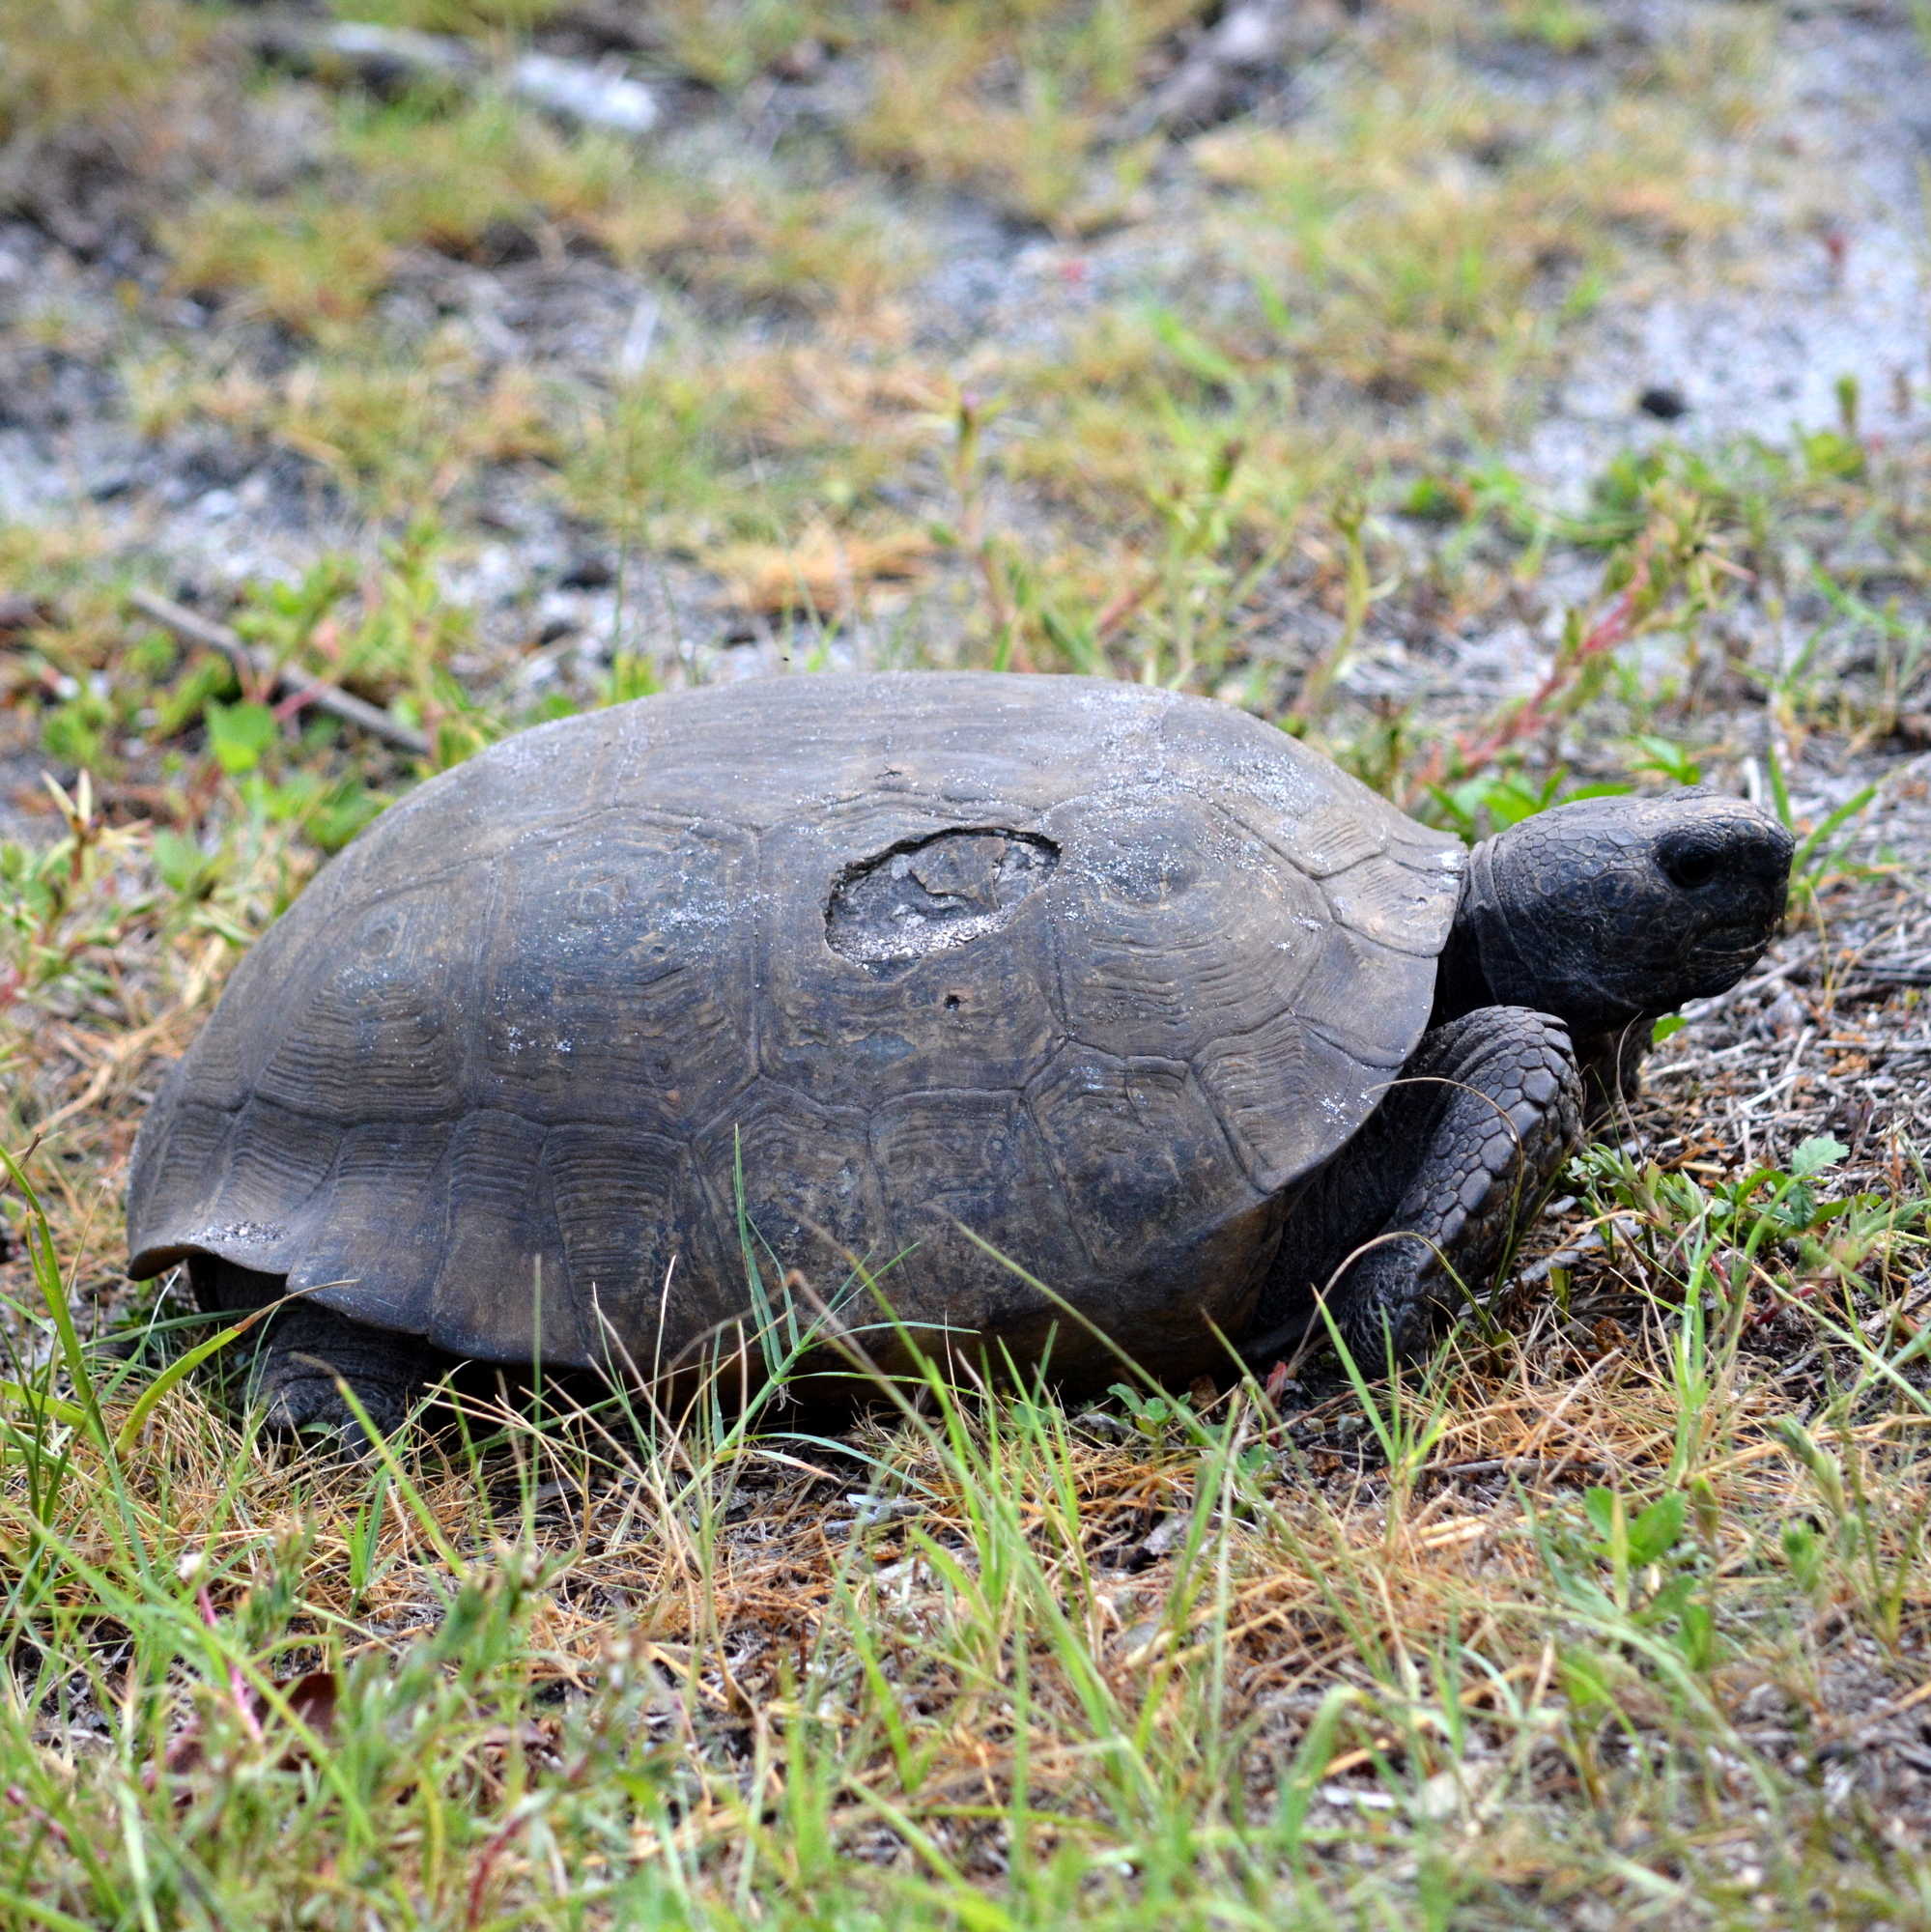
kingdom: Animalia
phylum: Chordata
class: Testudines
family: Testudinidae
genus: Gopherus
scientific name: Gopherus polyphemus
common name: Florida gopher tortoise
